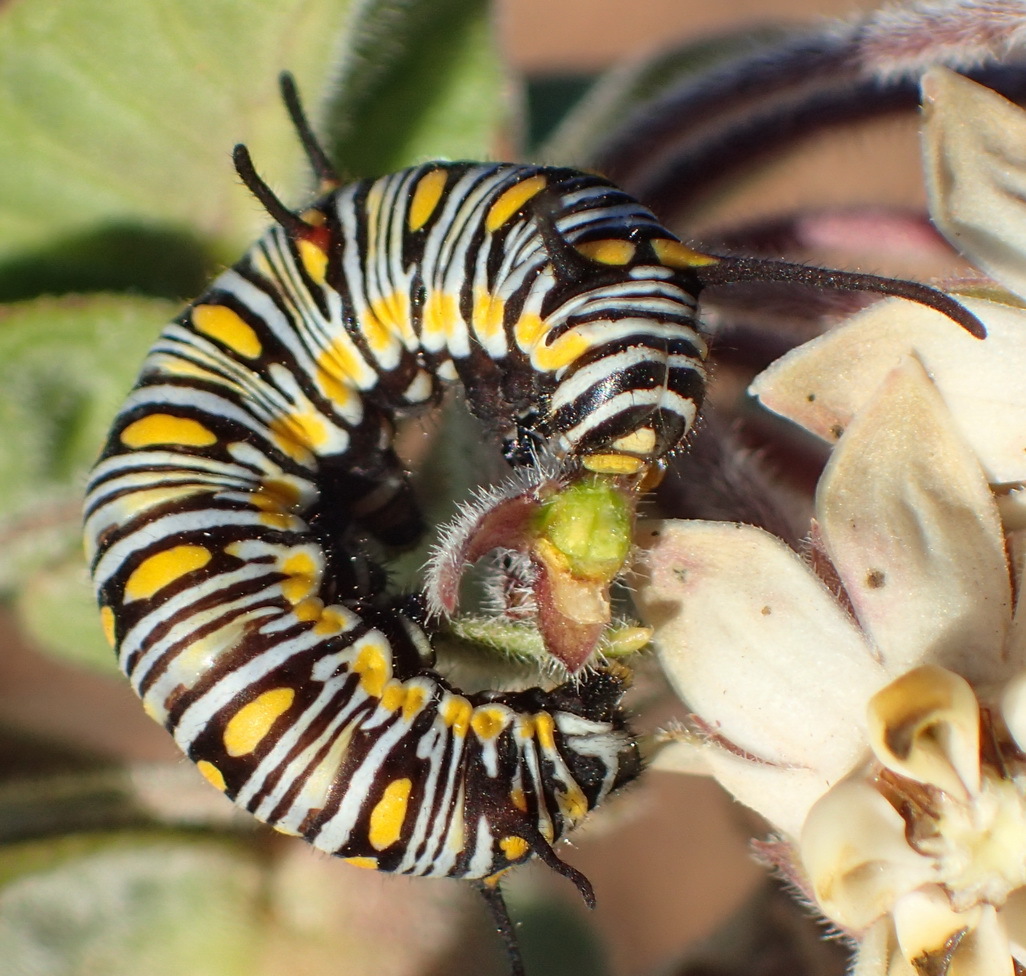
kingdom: Animalia
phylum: Arthropoda
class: Insecta
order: Lepidoptera
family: Nymphalidae
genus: Danaus
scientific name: Danaus chrysippus
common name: Plain tiger
